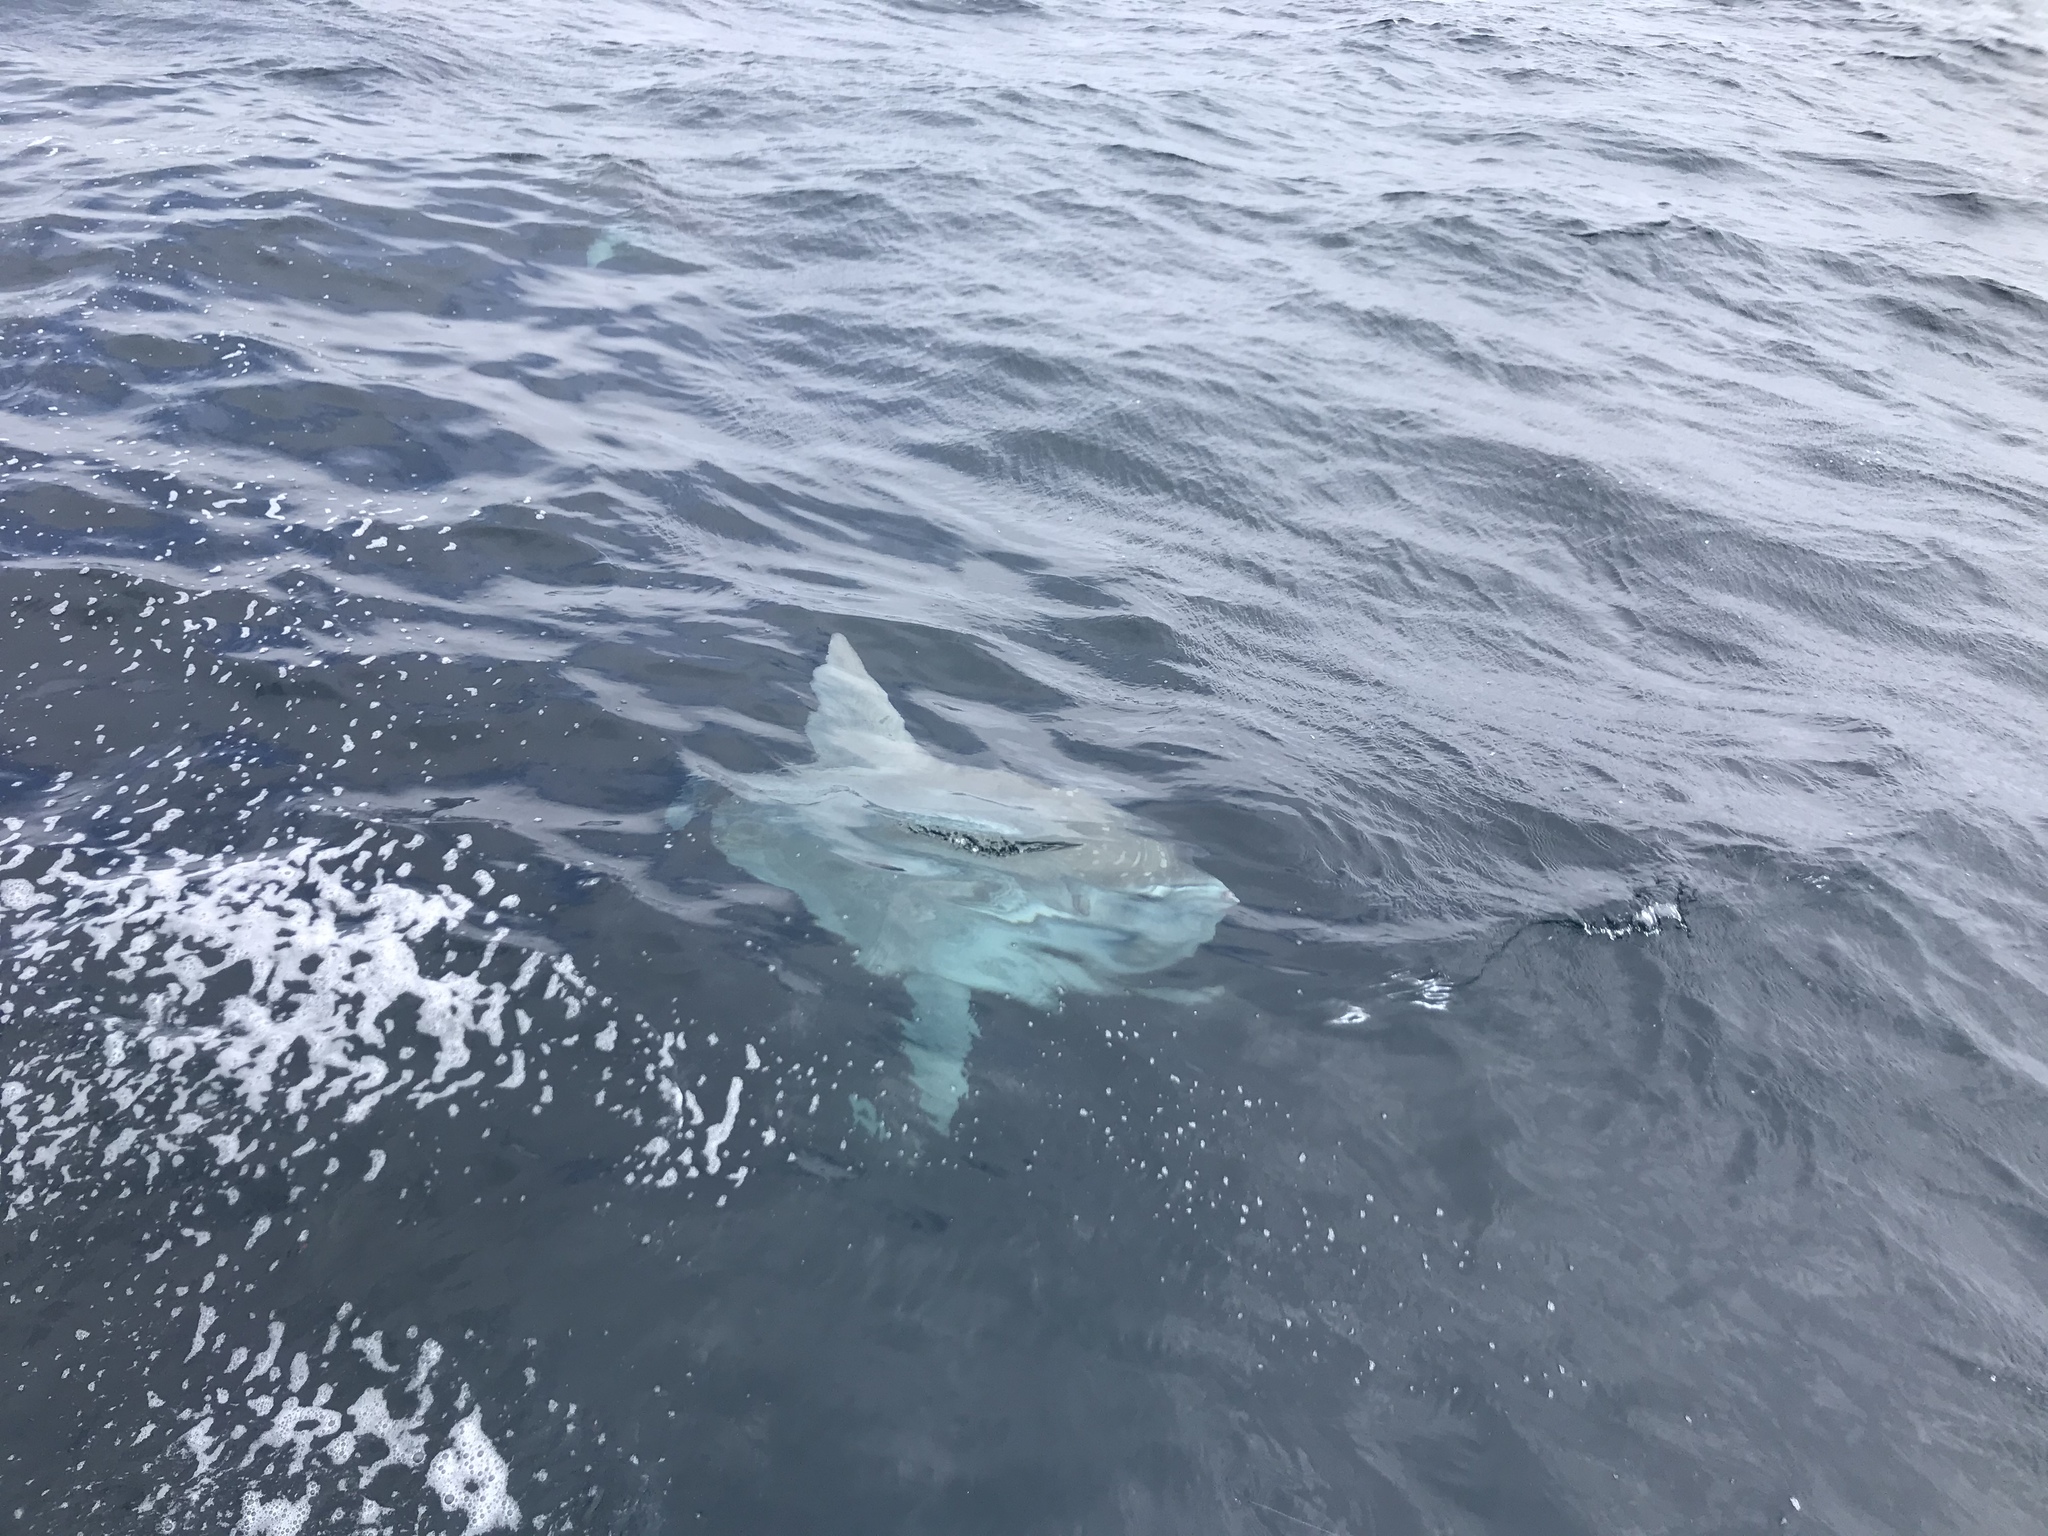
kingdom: Animalia
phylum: Chordata
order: Tetraodontiformes
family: Molidae
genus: Mola
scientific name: Mola mola
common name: Ocean sunfish
